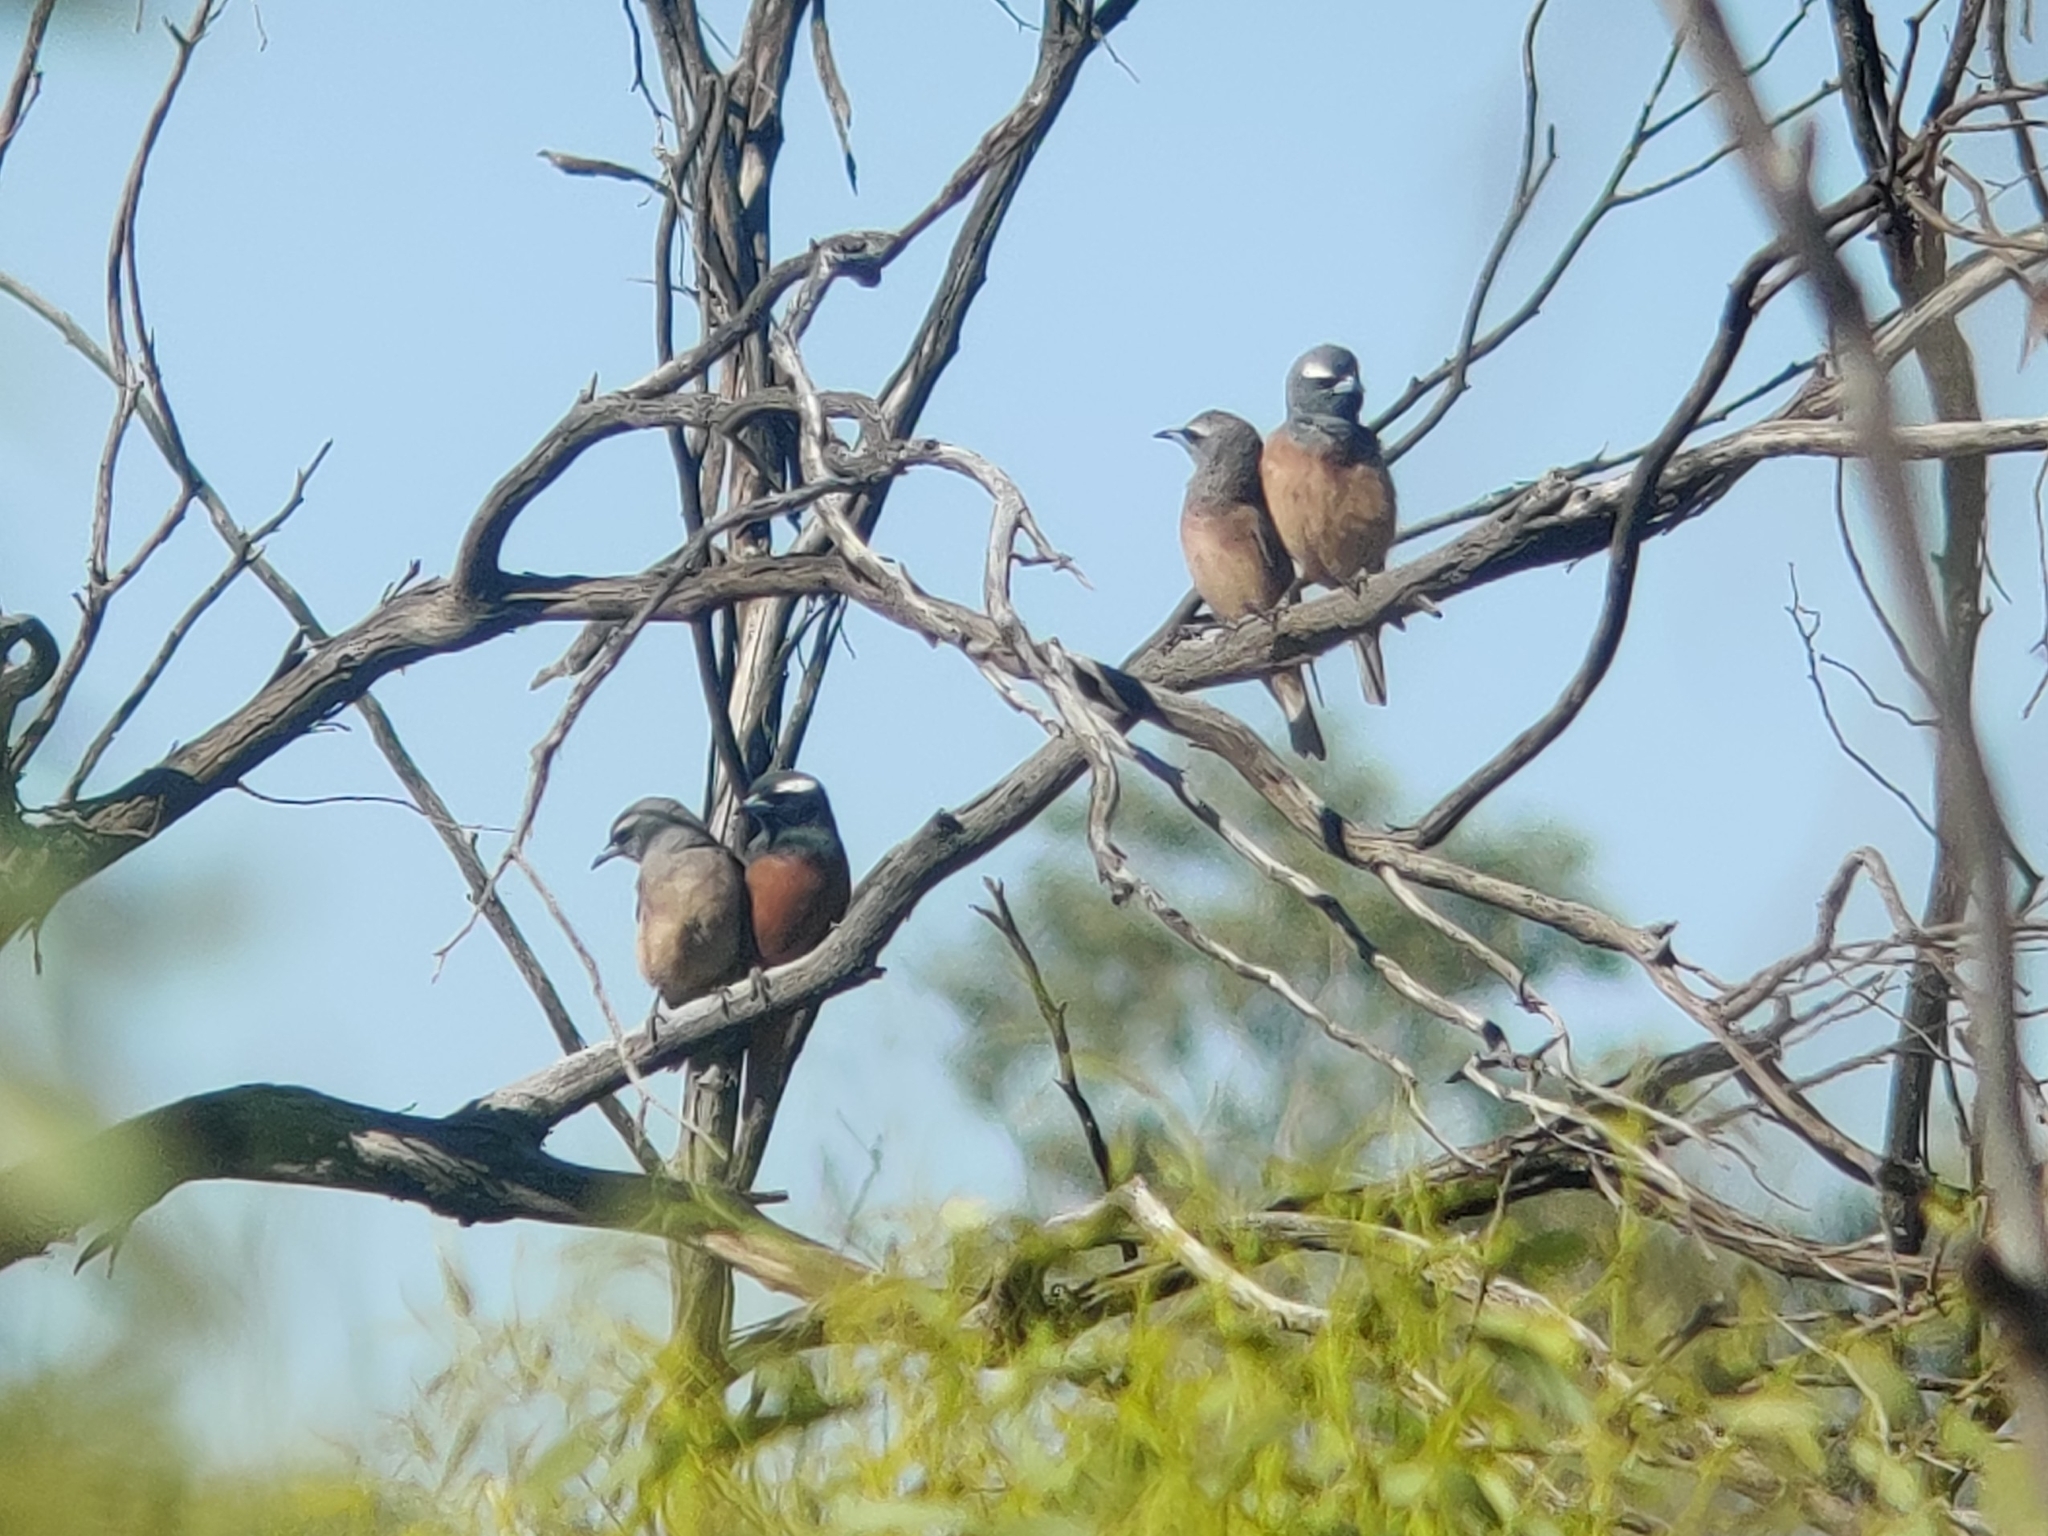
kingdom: Animalia
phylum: Chordata
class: Aves
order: Passeriformes
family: Artamidae
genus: Artamus
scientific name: Artamus superciliosus
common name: White-browed woodswallow
